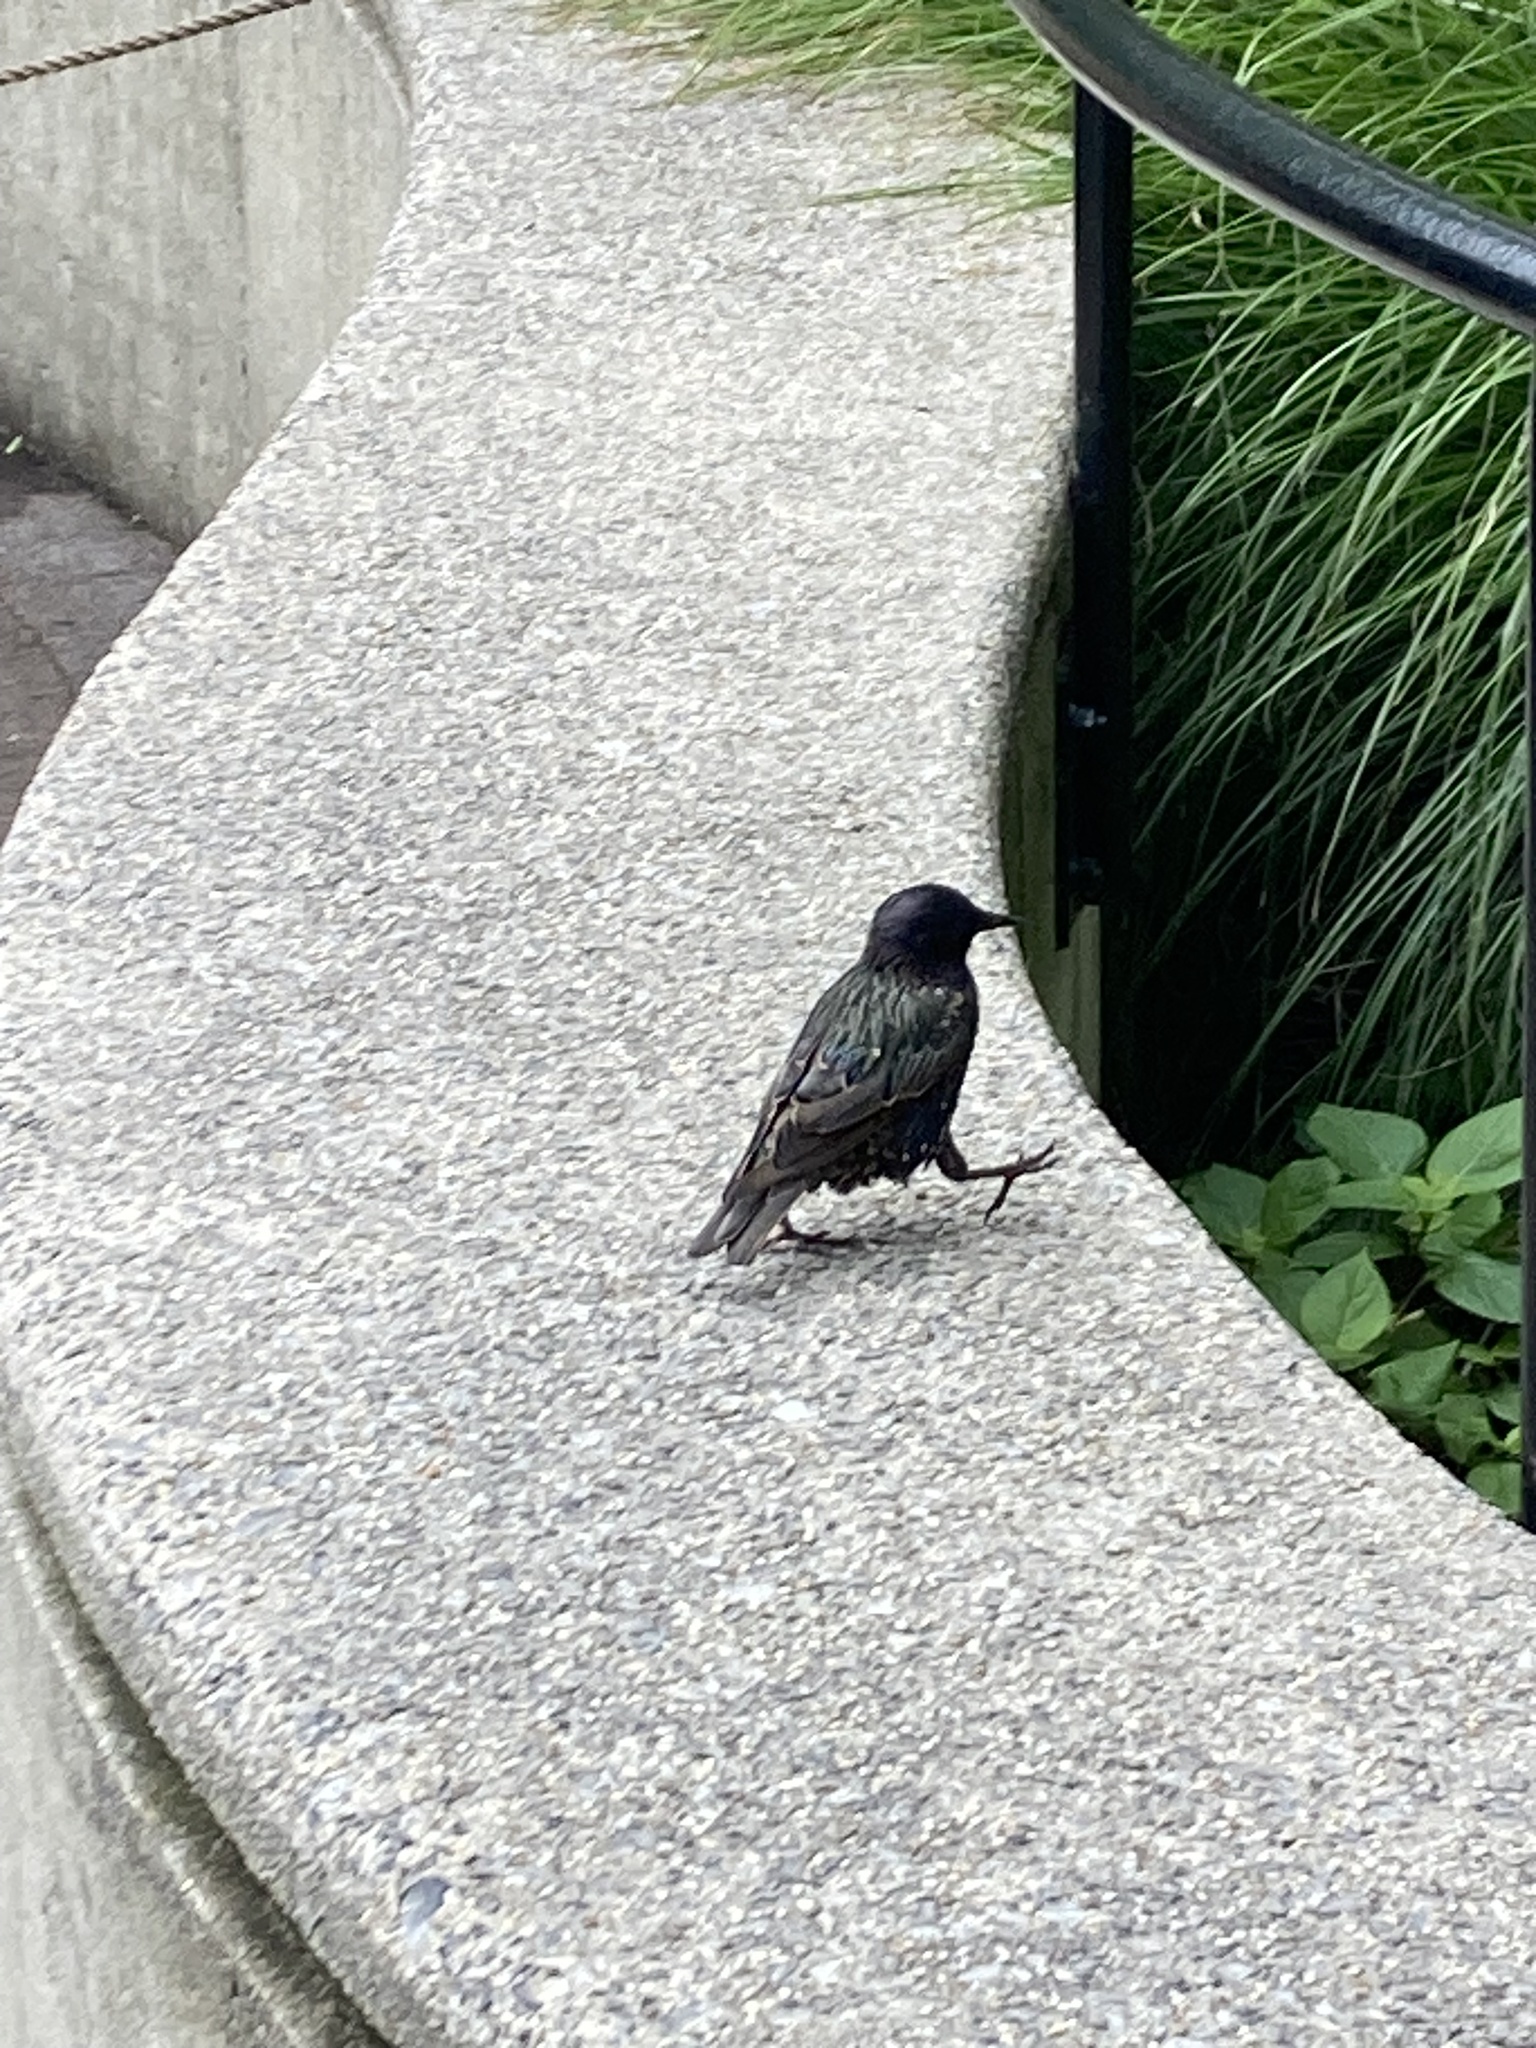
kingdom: Animalia
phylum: Chordata
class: Aves
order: Passeriformes
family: Sturnidae
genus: Sturnus
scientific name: Sturnus vulgaris
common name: Common starling
